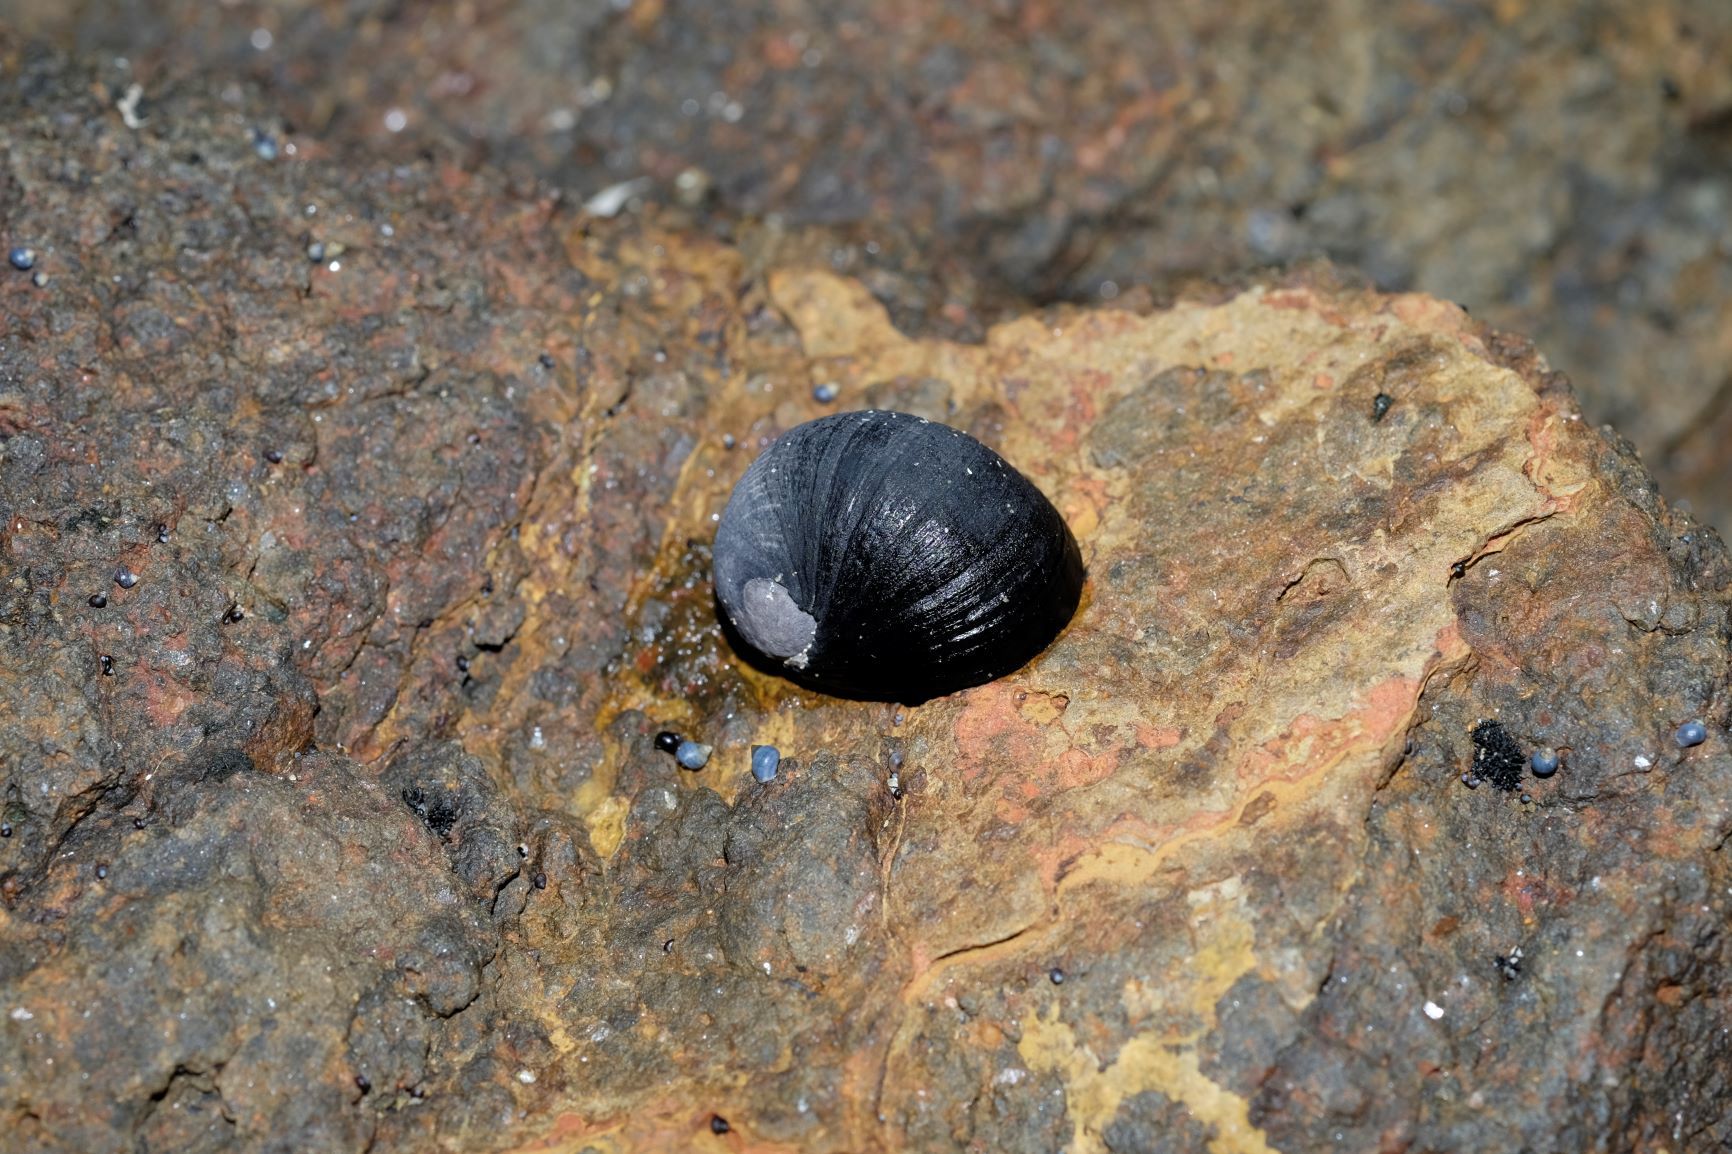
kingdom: Animalia
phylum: Mollusca
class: Gastropoda
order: Cycloneritida
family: Neritidae
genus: Nerita
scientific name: Nerita atramentosa
